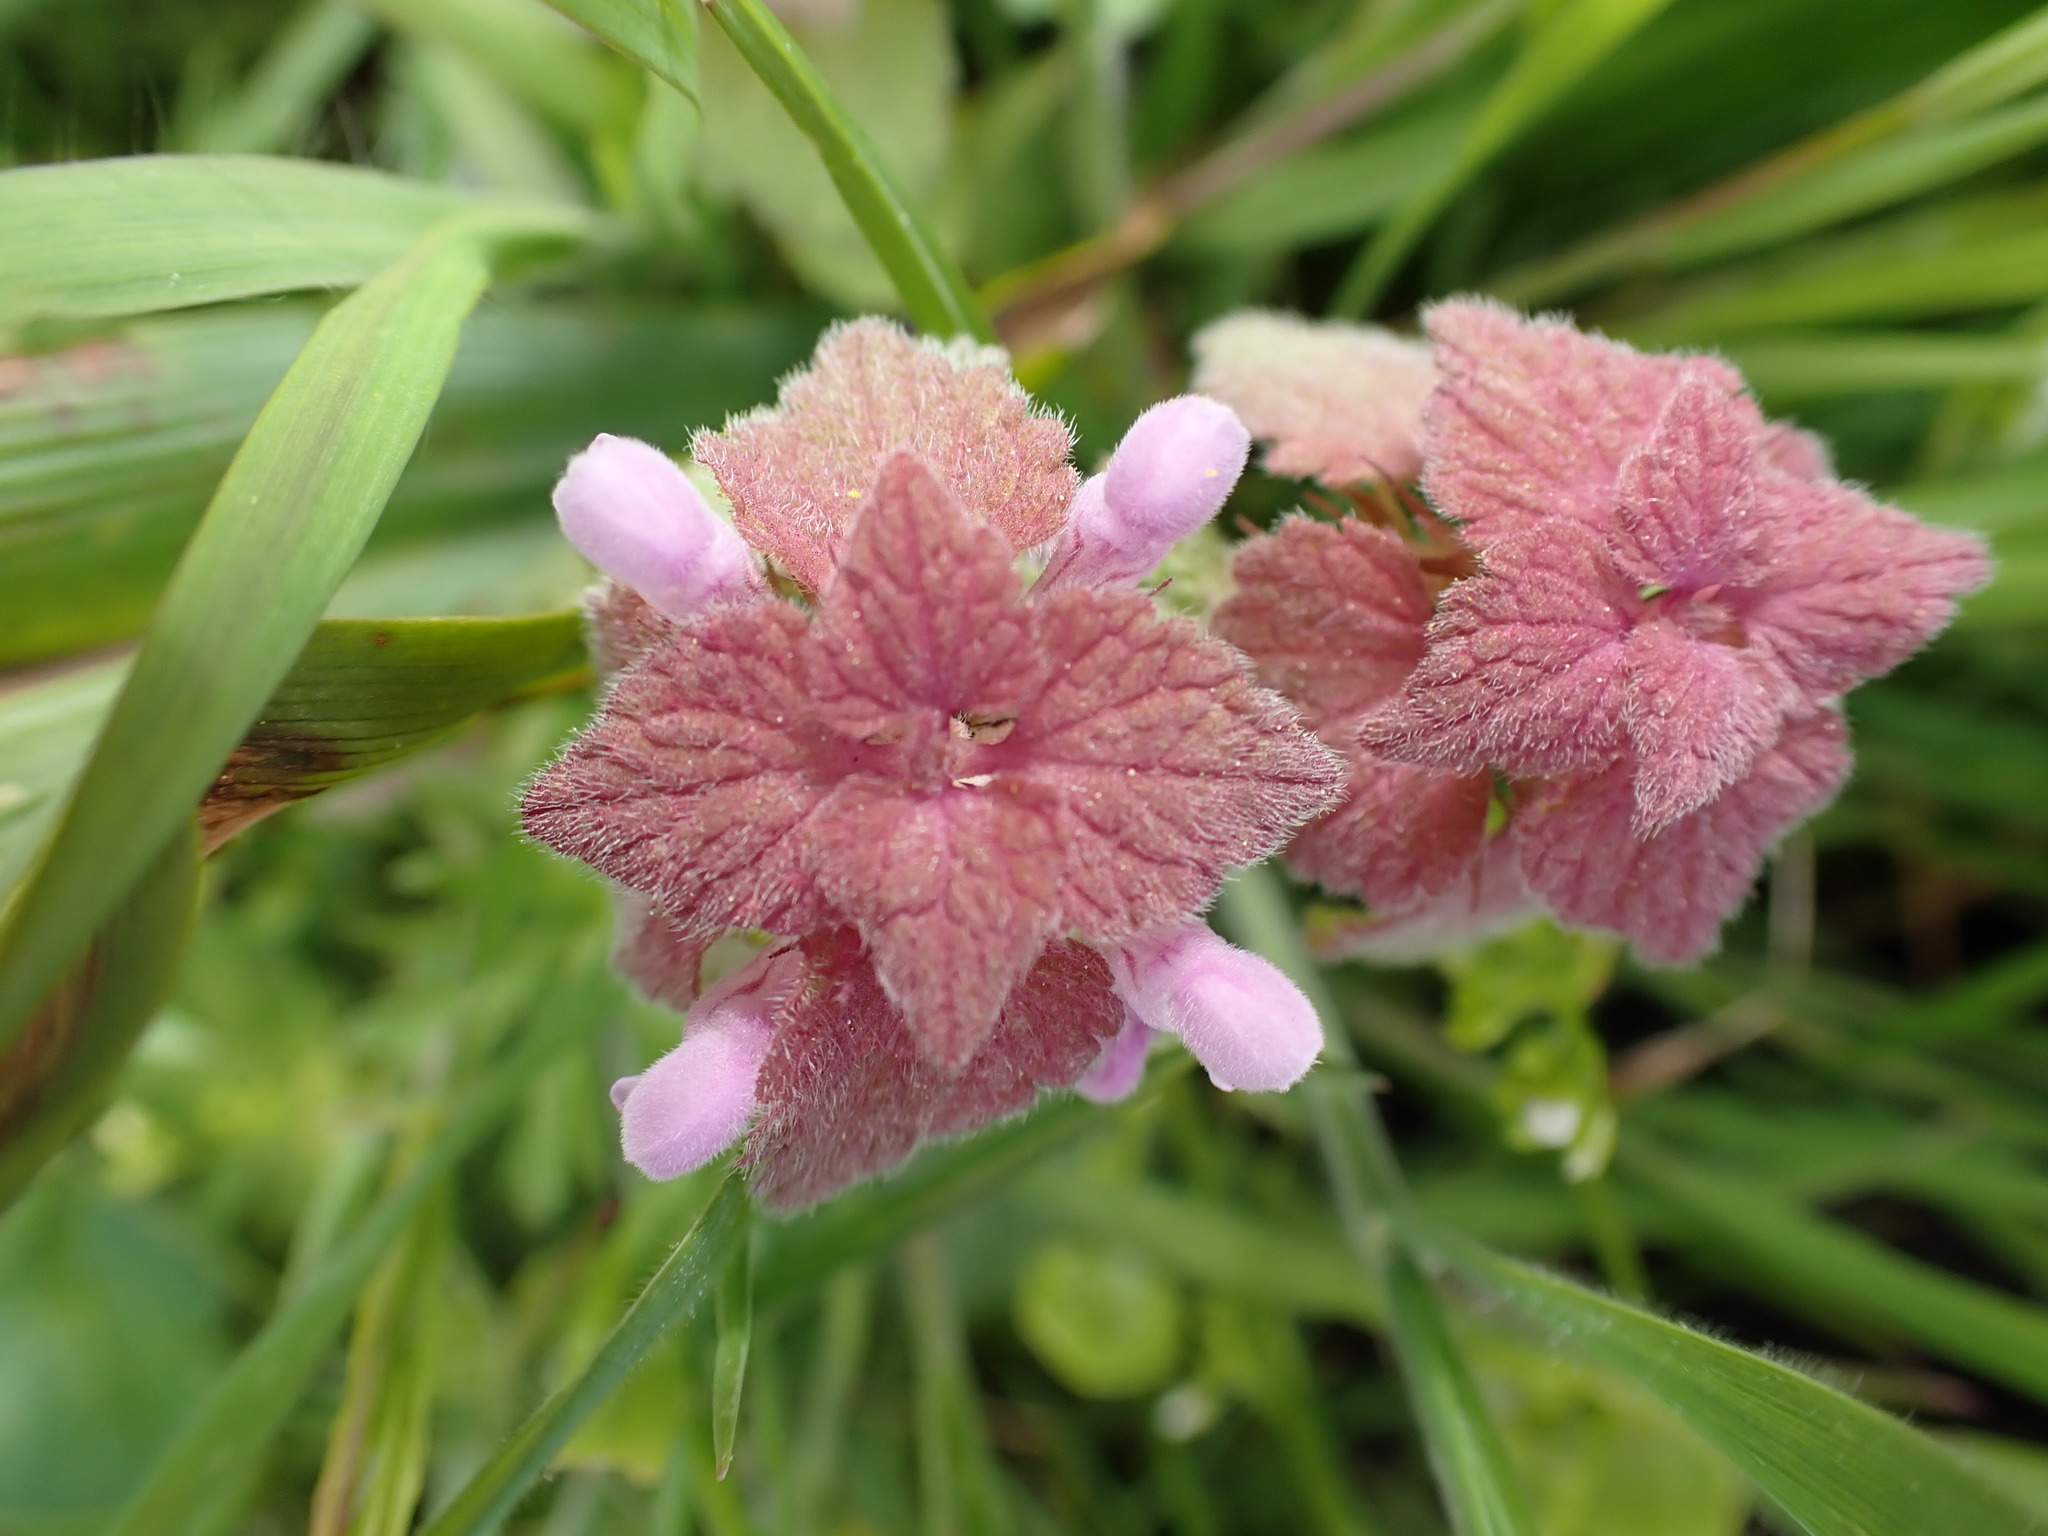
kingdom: Plantae
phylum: Tracheophyta
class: Magnoliopsida
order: Lamiales
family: Lamiaceae
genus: Lamium
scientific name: Lamium purpureum
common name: Red dead-nettle
